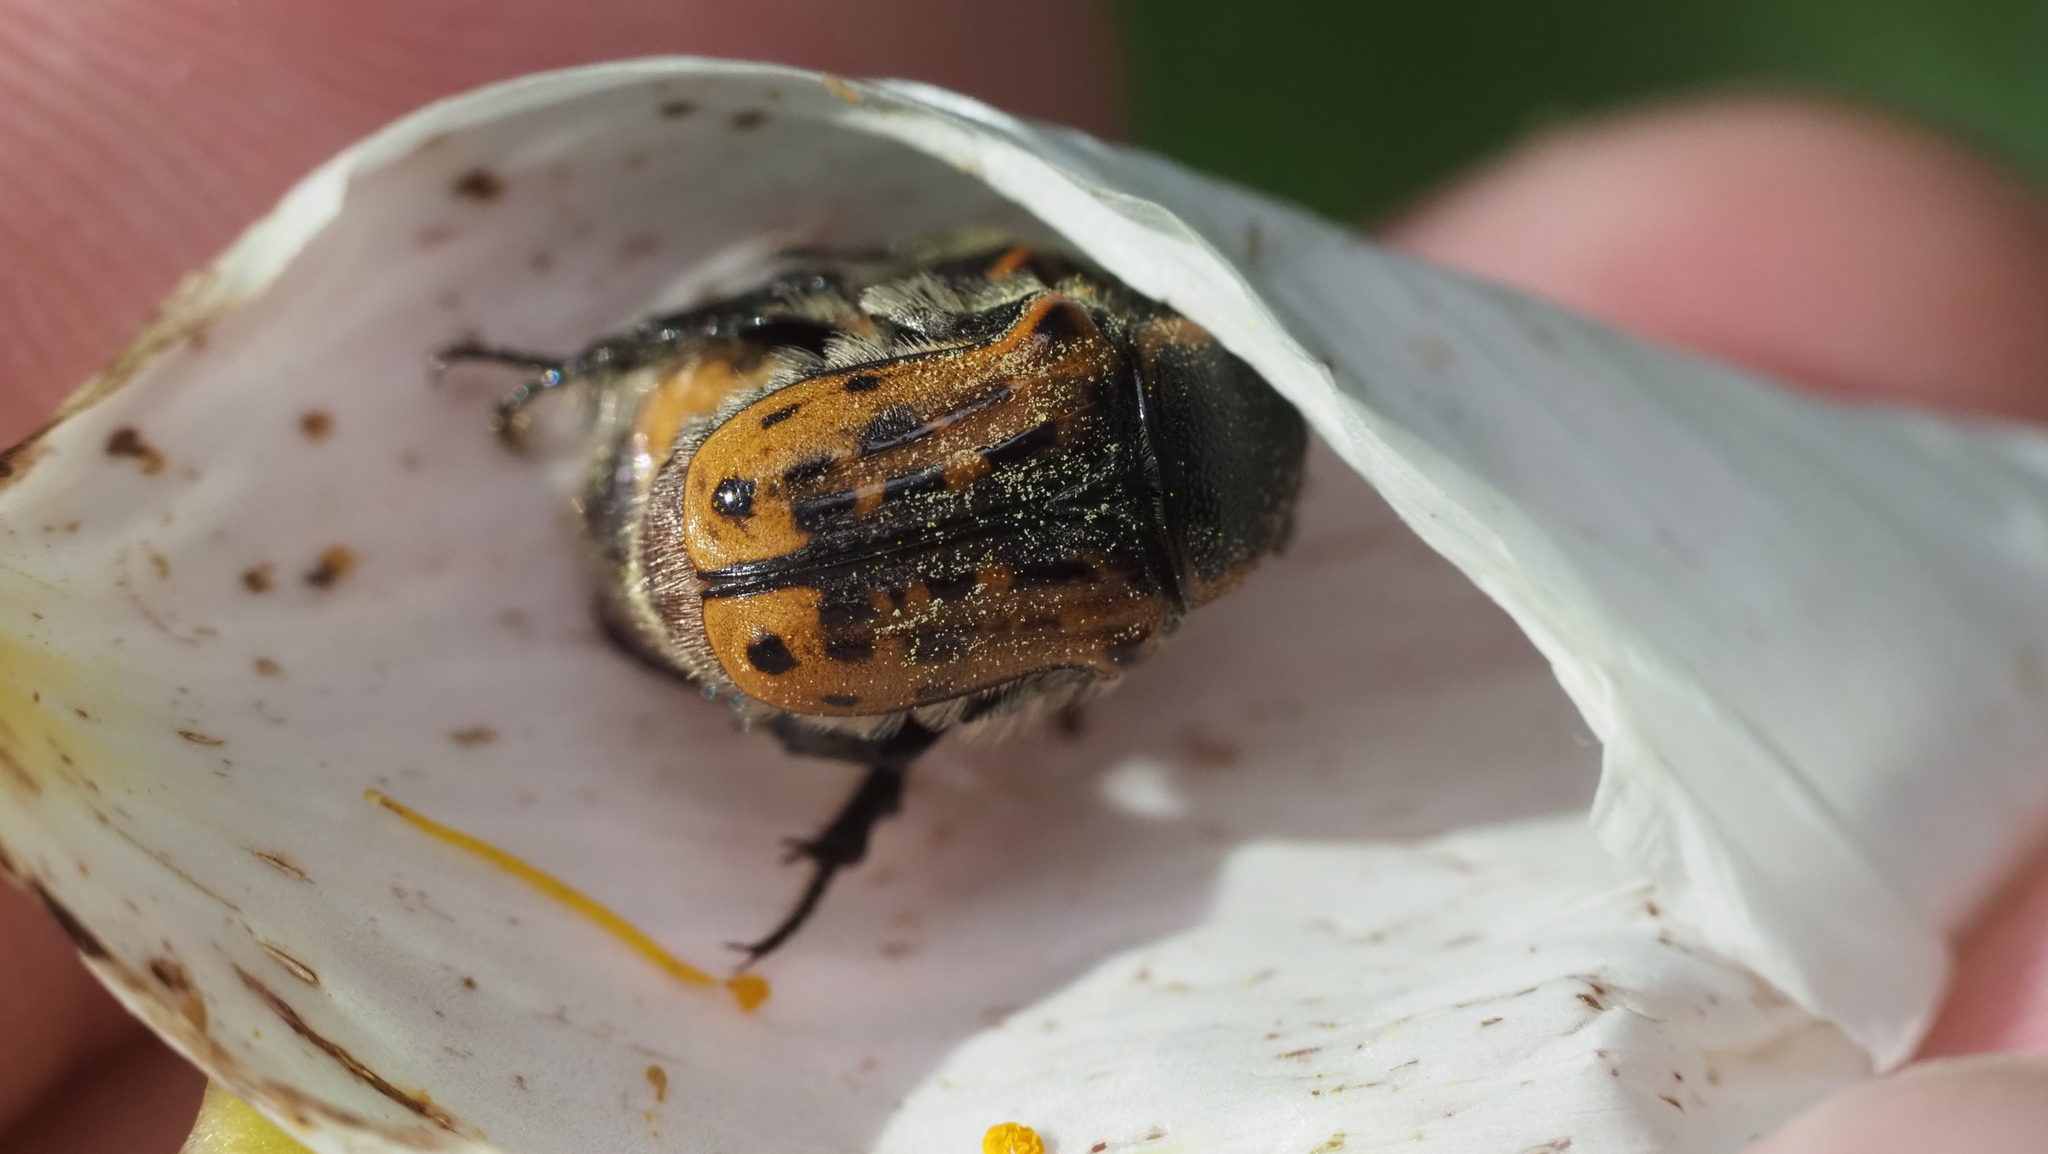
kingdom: Animalia
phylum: Arthropoda
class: Insecta
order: Coleoptera
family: Scarabaeidae
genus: Euphoria
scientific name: Euphoria kernii
